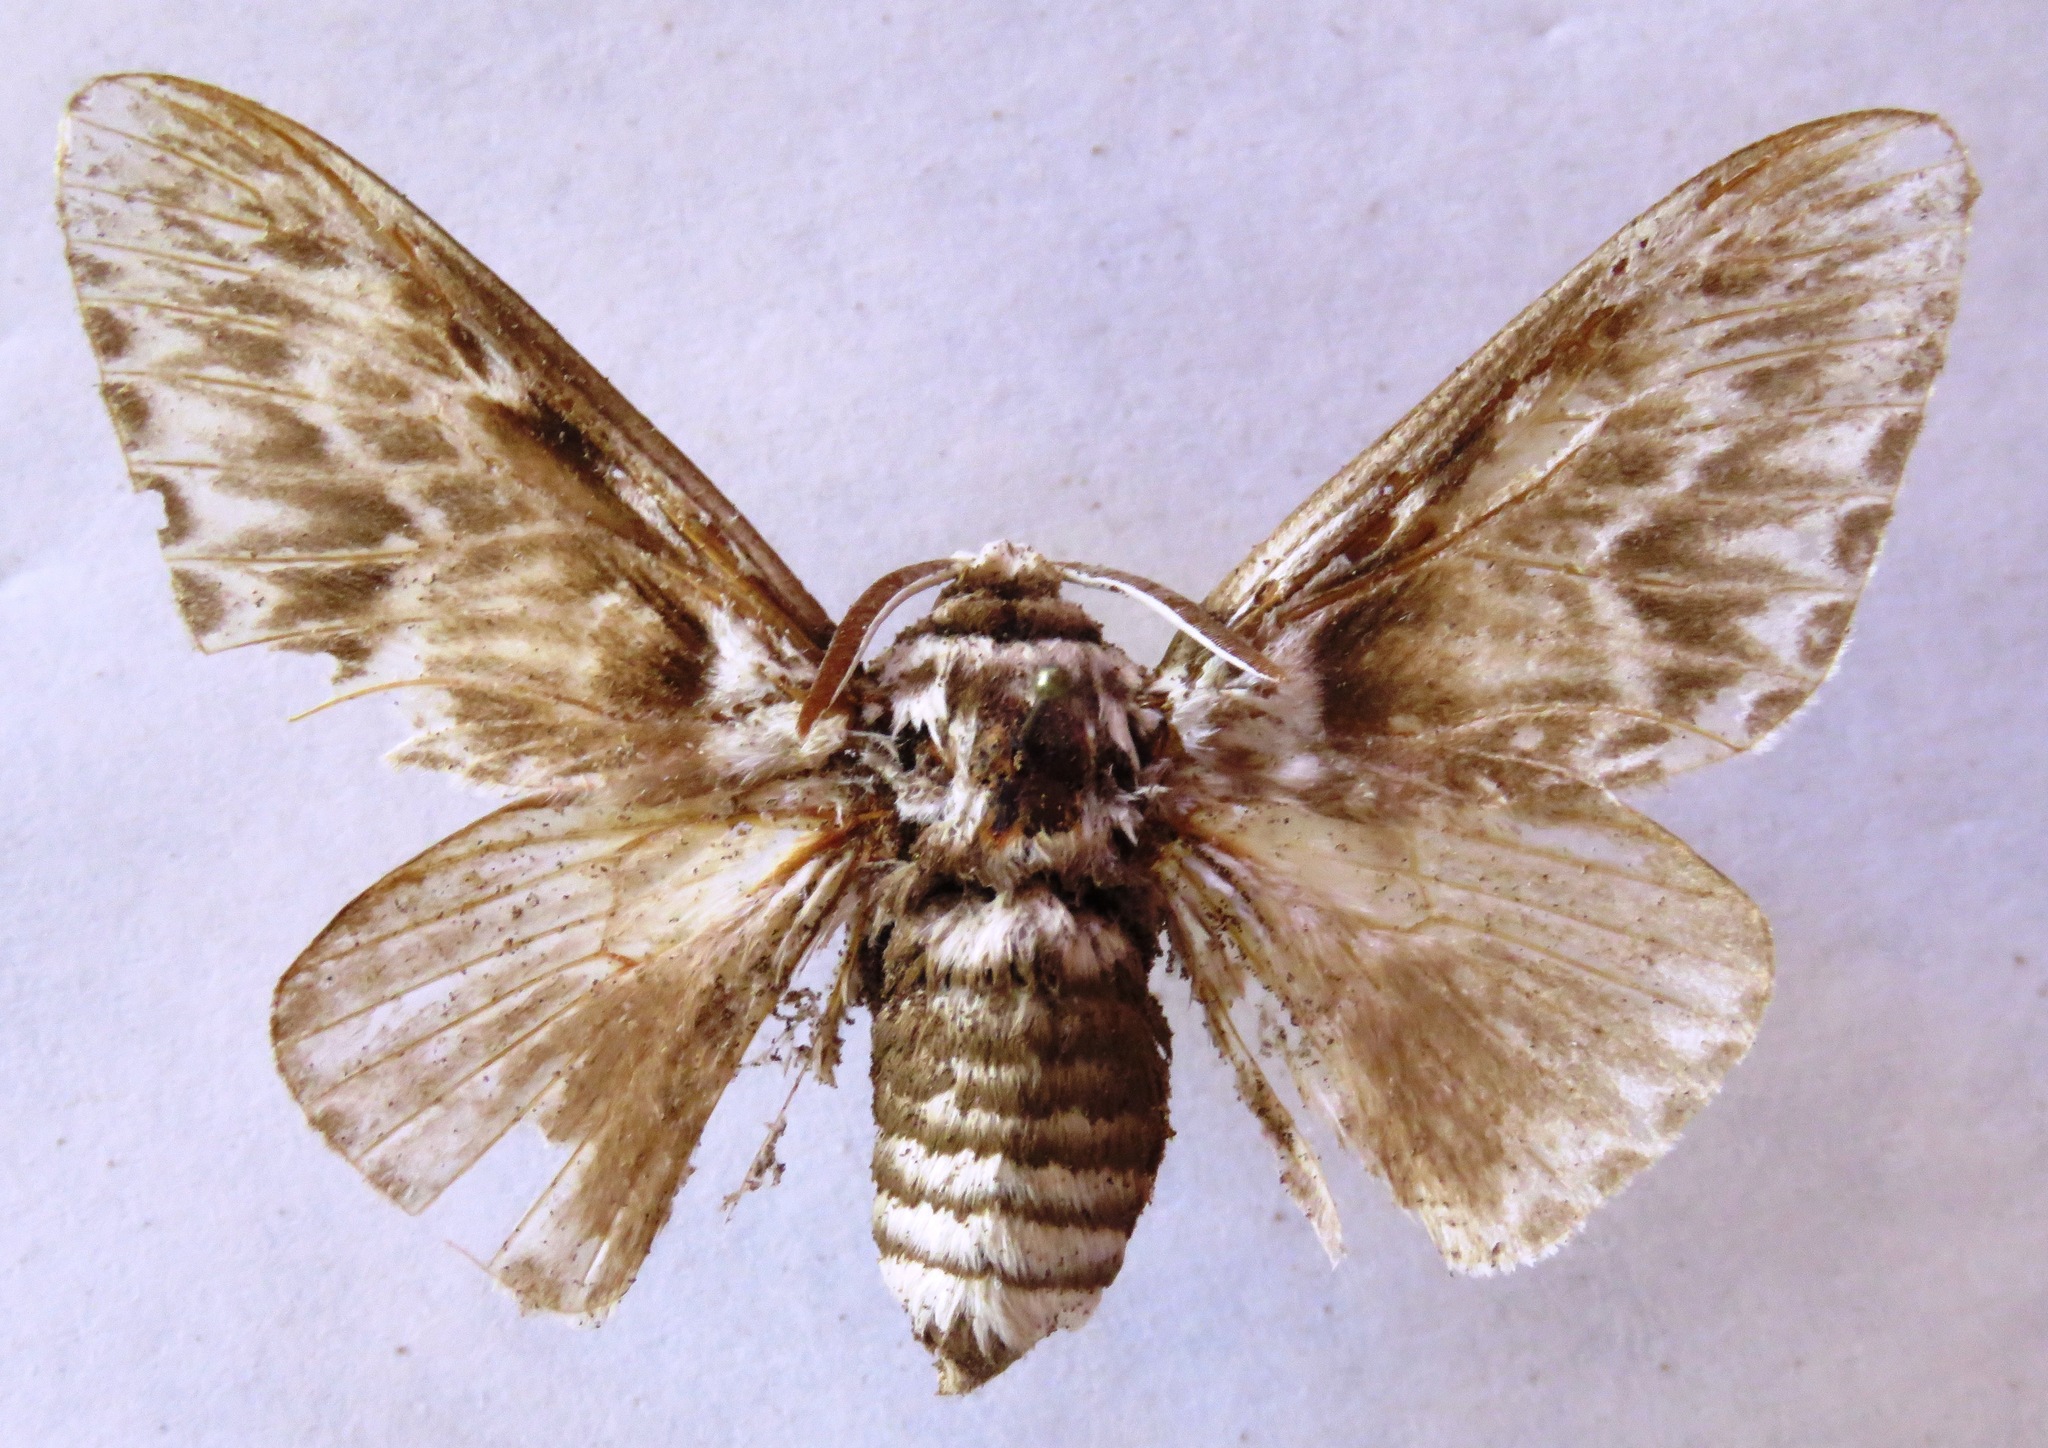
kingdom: Animalia
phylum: Arthropoda
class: Insecta
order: Lepidoptera
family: Megalopygidae
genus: Podalia
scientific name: Podalia orsilochus
